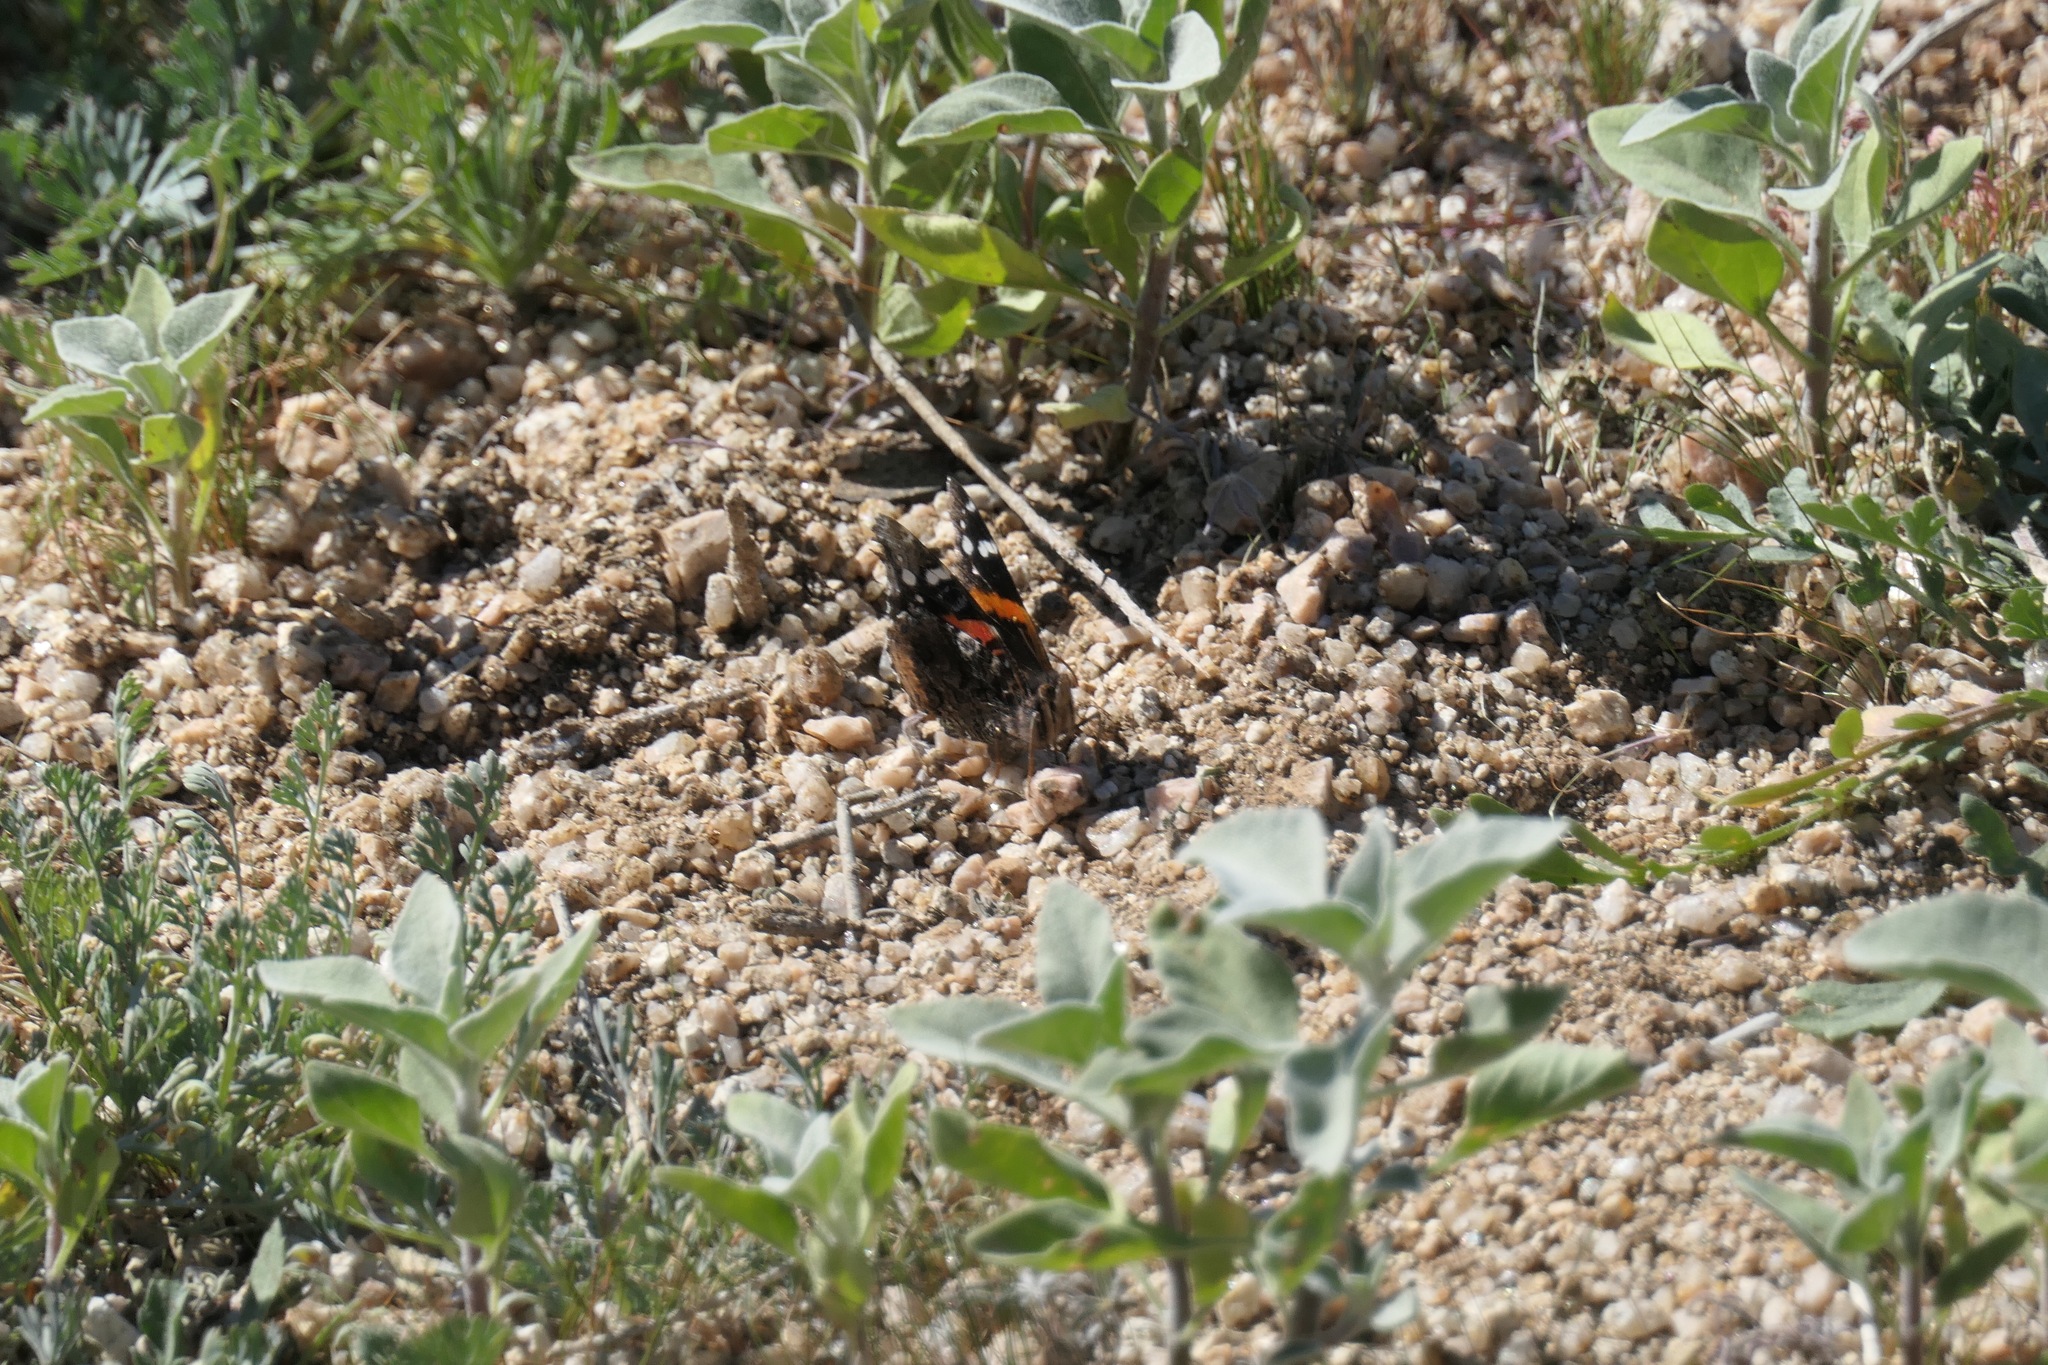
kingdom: Animalia
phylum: Arthropoda
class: Insecta
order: Lepidoptera
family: Nymphalidae
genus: Vanessa
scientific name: Vanessa atalanta
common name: Red admiral
